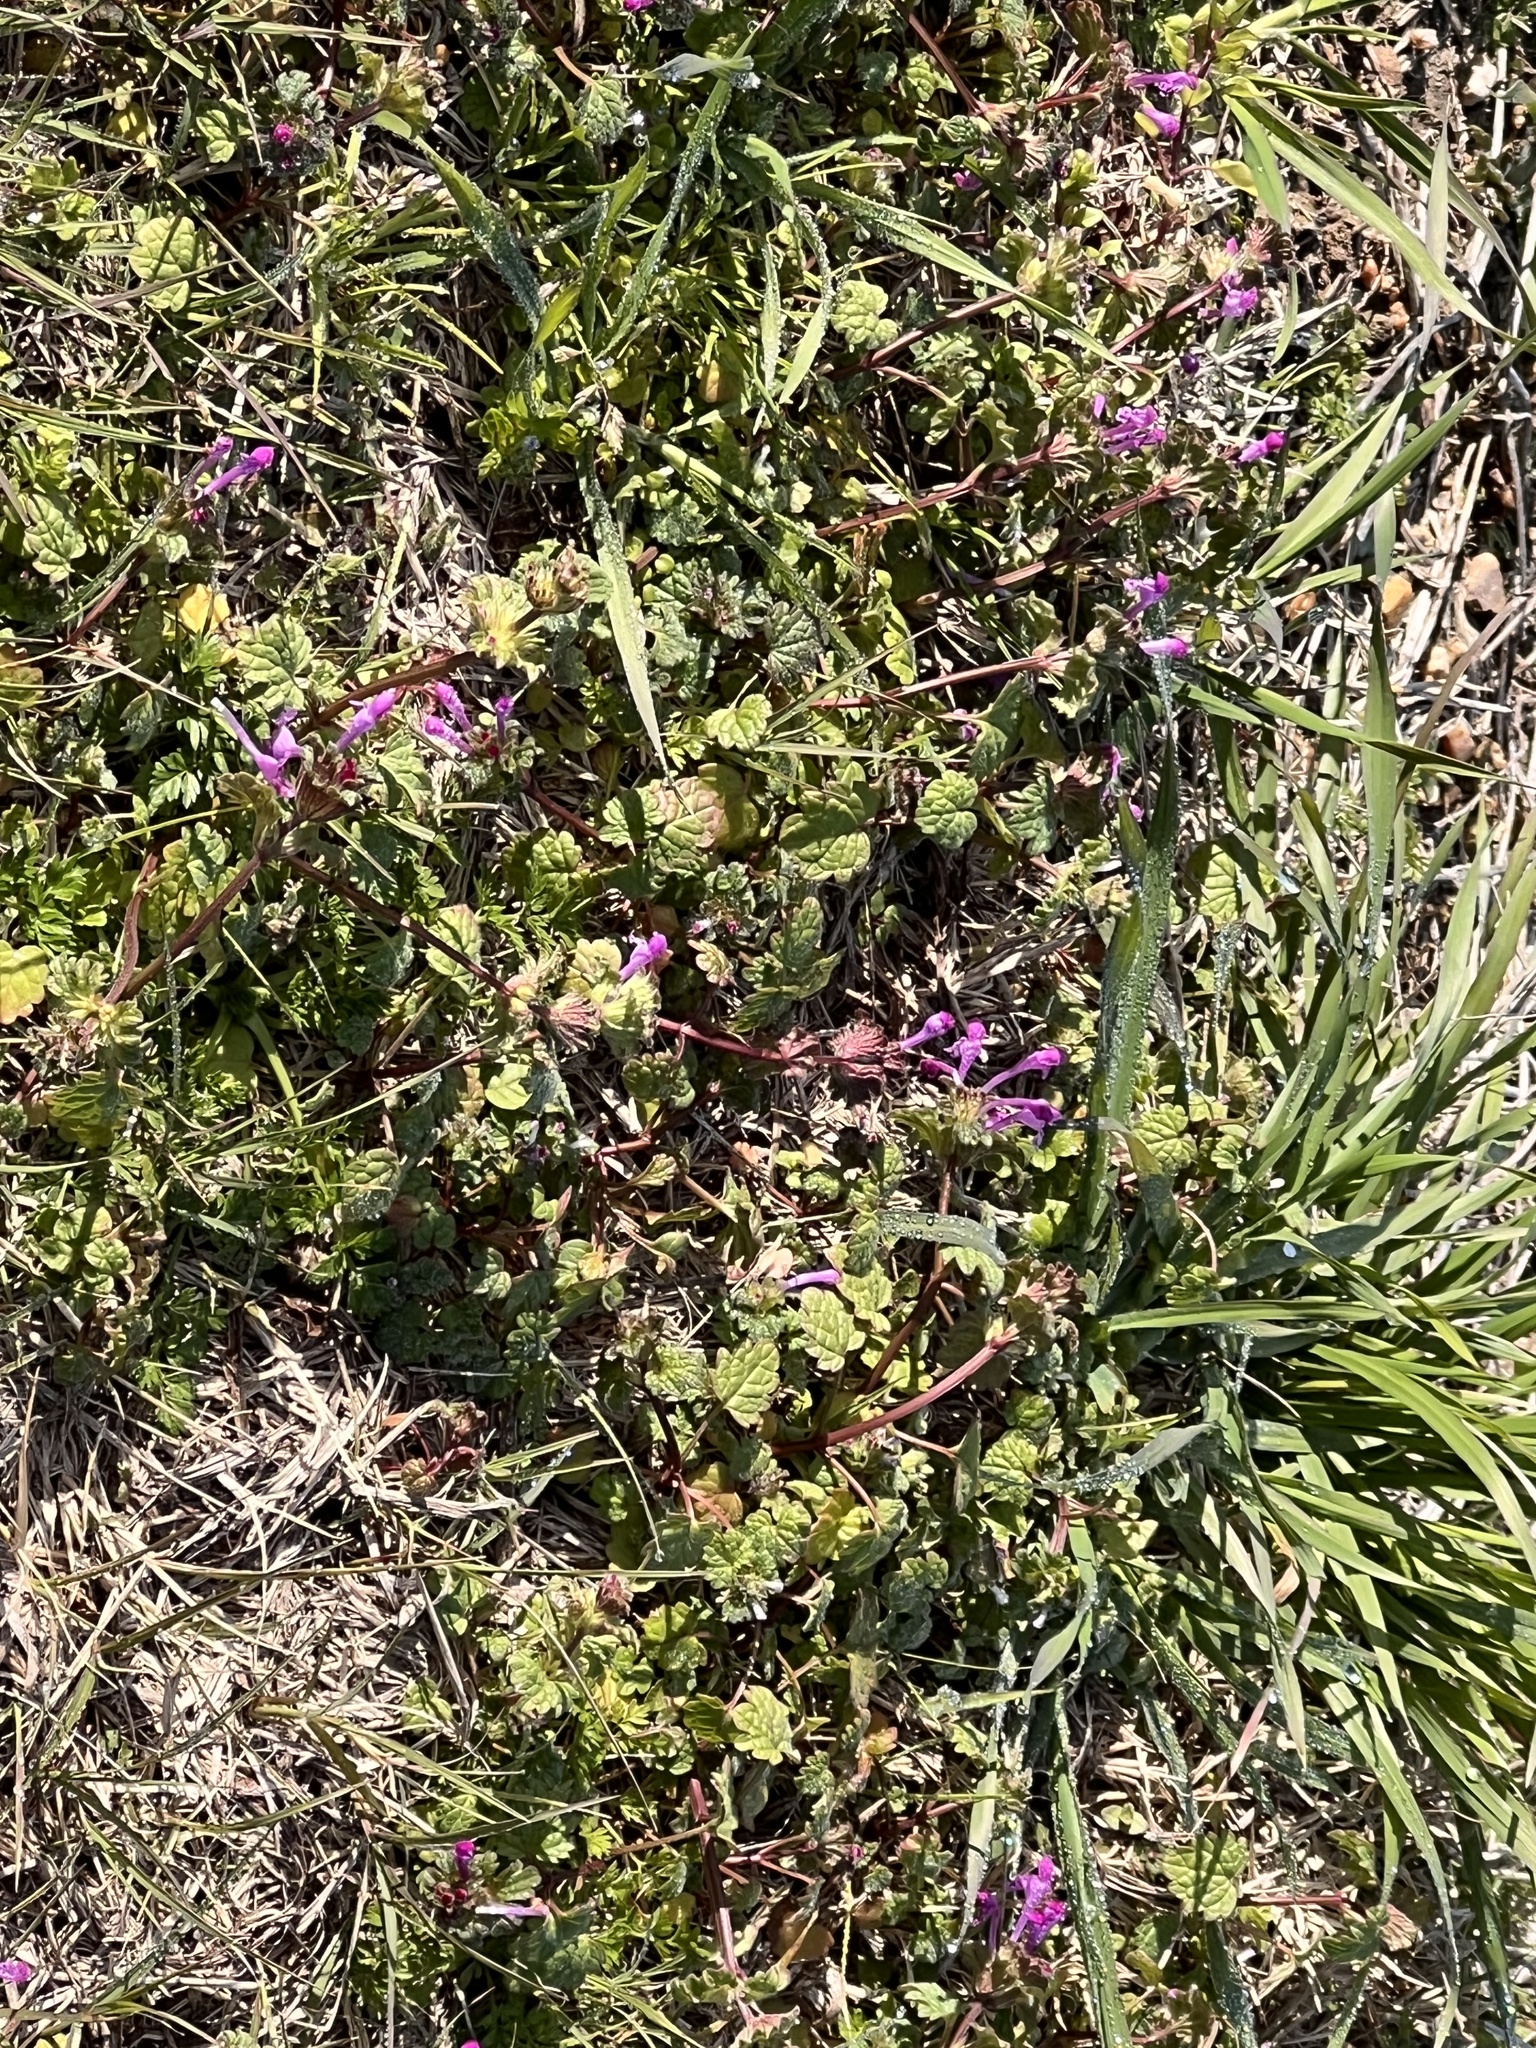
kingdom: Plantae
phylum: Tracheophyta
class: Magnoliopsida
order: Lamiales
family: Lamiaceae
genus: Lamium
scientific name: Lamium amplexicaule
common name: Henbit dead-nettle
